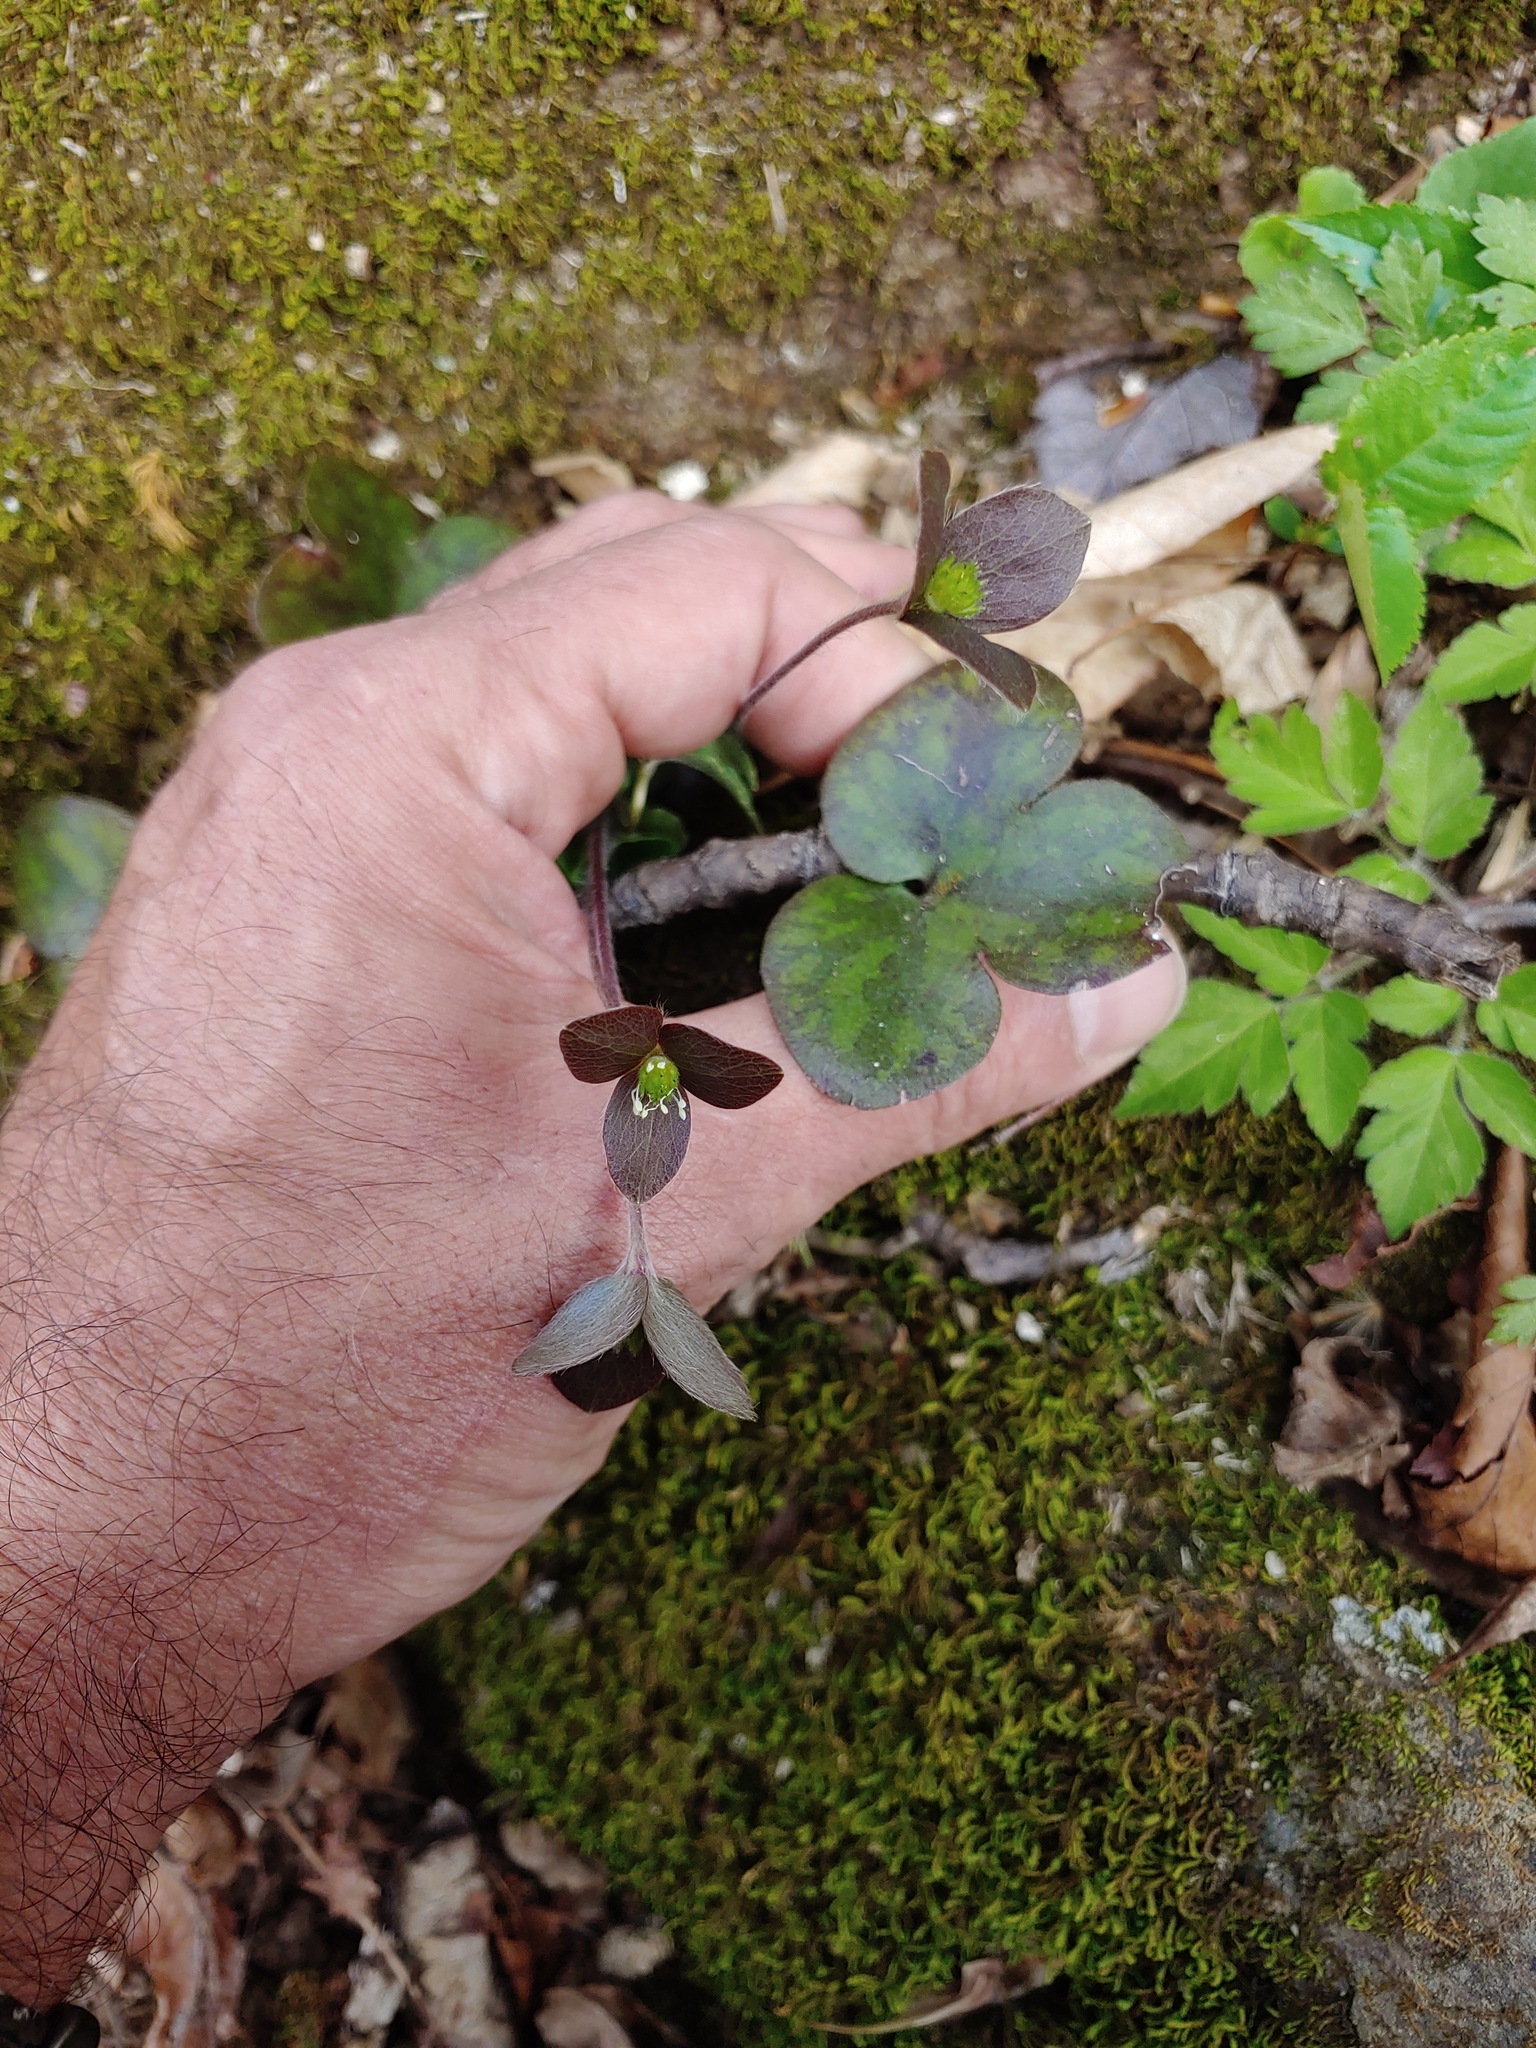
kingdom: Plantae
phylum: Tracheophyta
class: Magnoliopsida
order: Ranunculales
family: Ranunculaceae
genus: Hepatica
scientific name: Hepatica americana
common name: American hepatica
